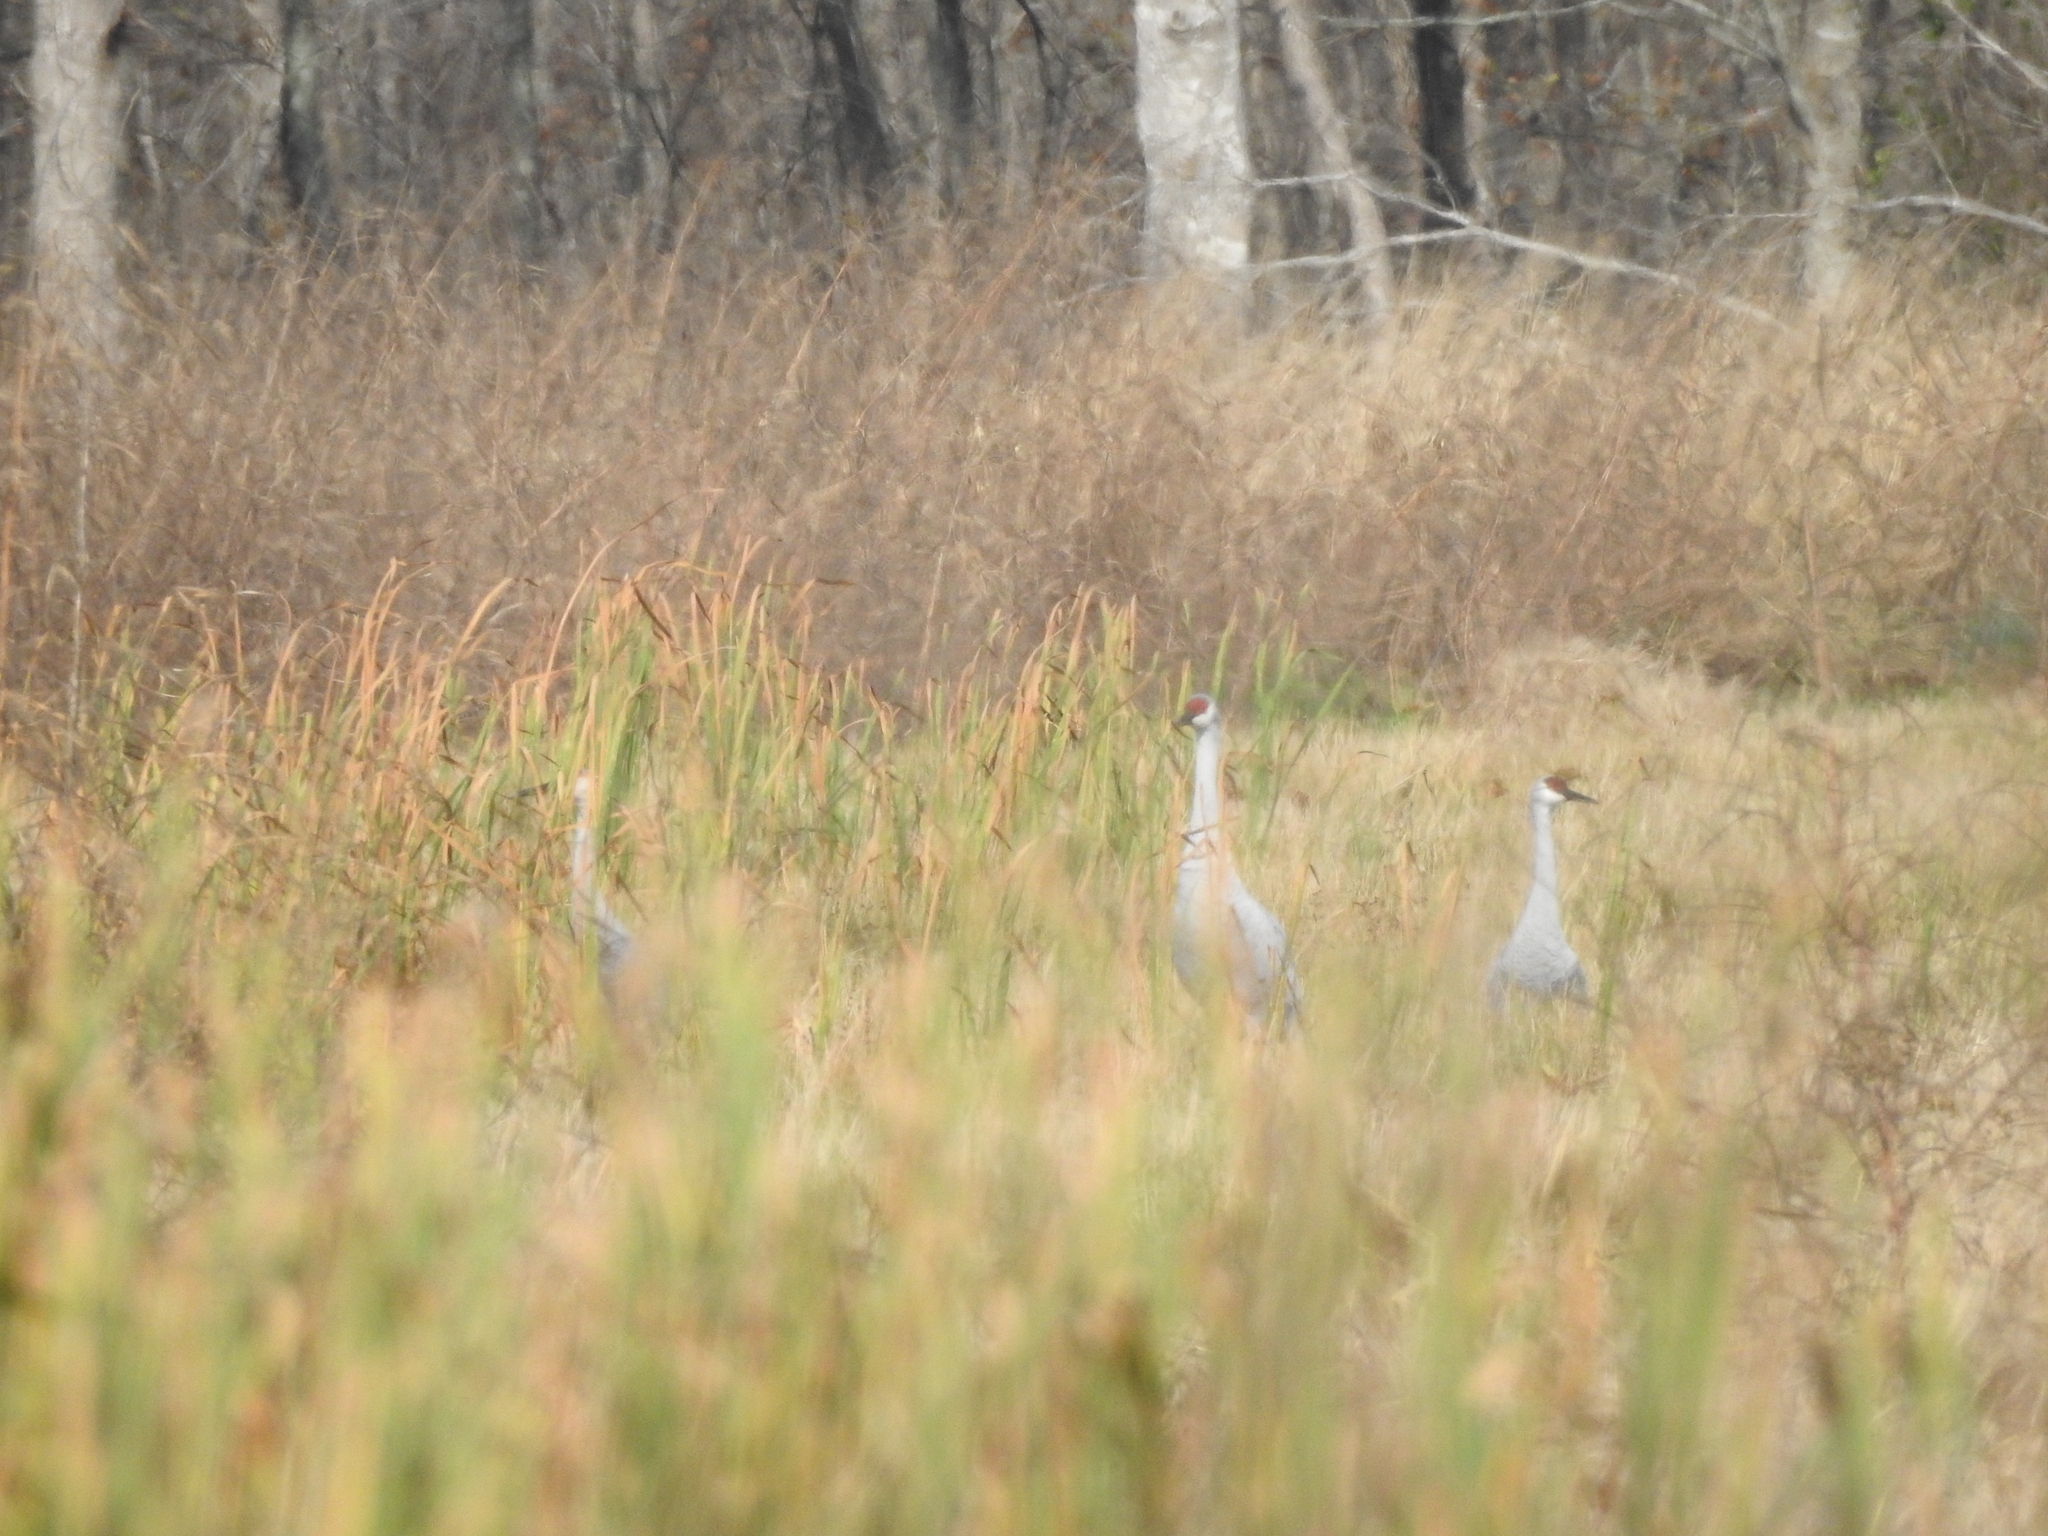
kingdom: Animalia
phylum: Chordata
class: Aves
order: Gruiformes
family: Gruidae
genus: Grus
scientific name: Grus canadensis
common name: Sandhill crane
